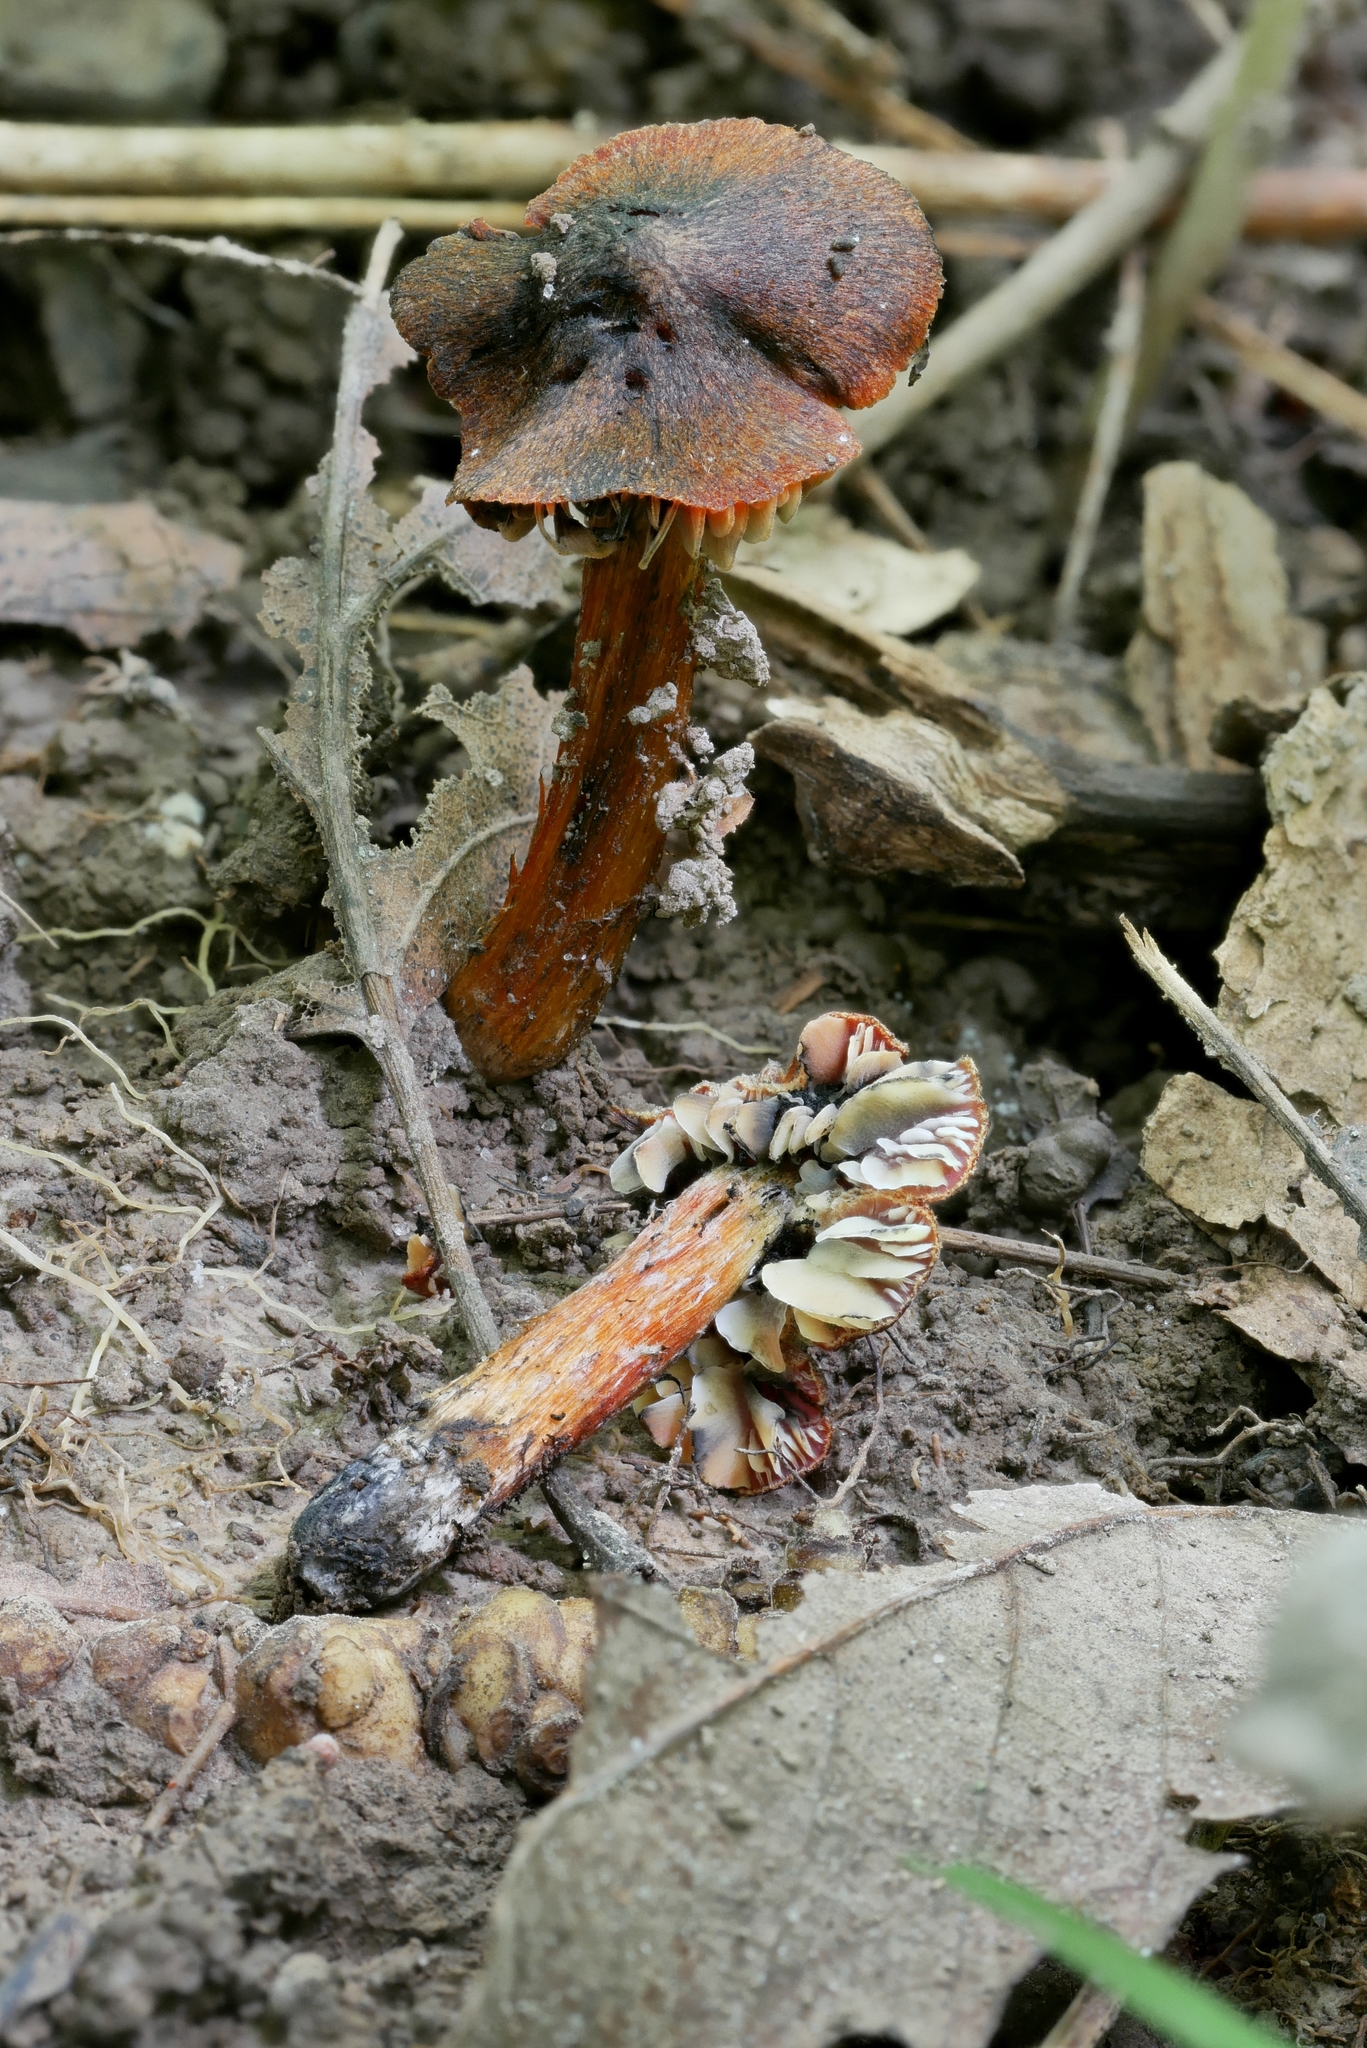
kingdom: Fungi
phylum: Basidiomycota
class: Agaricomycetes
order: Agaricales
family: Hygrophoraceae
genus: Hygrocybe
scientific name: Hygrocybe conica
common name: Blackening wax-cap
